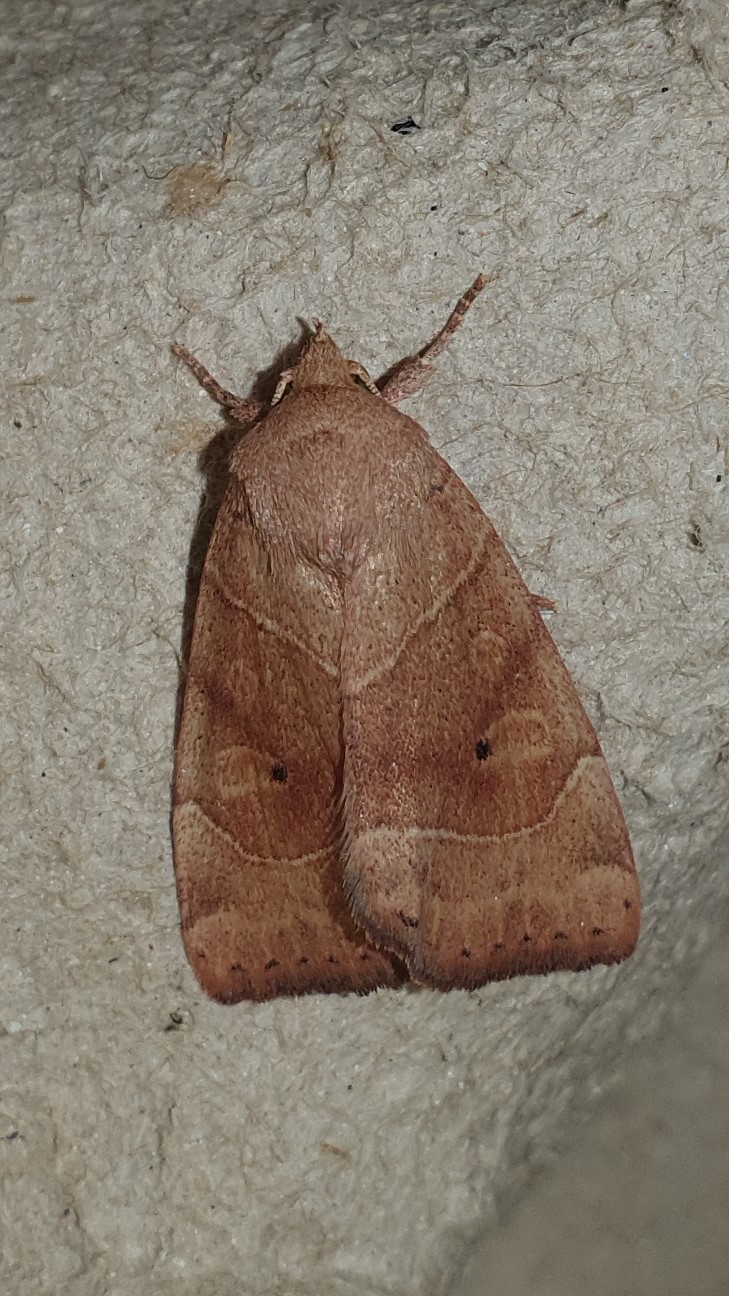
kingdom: Animalia
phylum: Arthropoda
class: Insecta
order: Lepidoptera
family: Noctuidae
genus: Cosmia
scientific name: Cosmia trapezina
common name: Dun-bar
